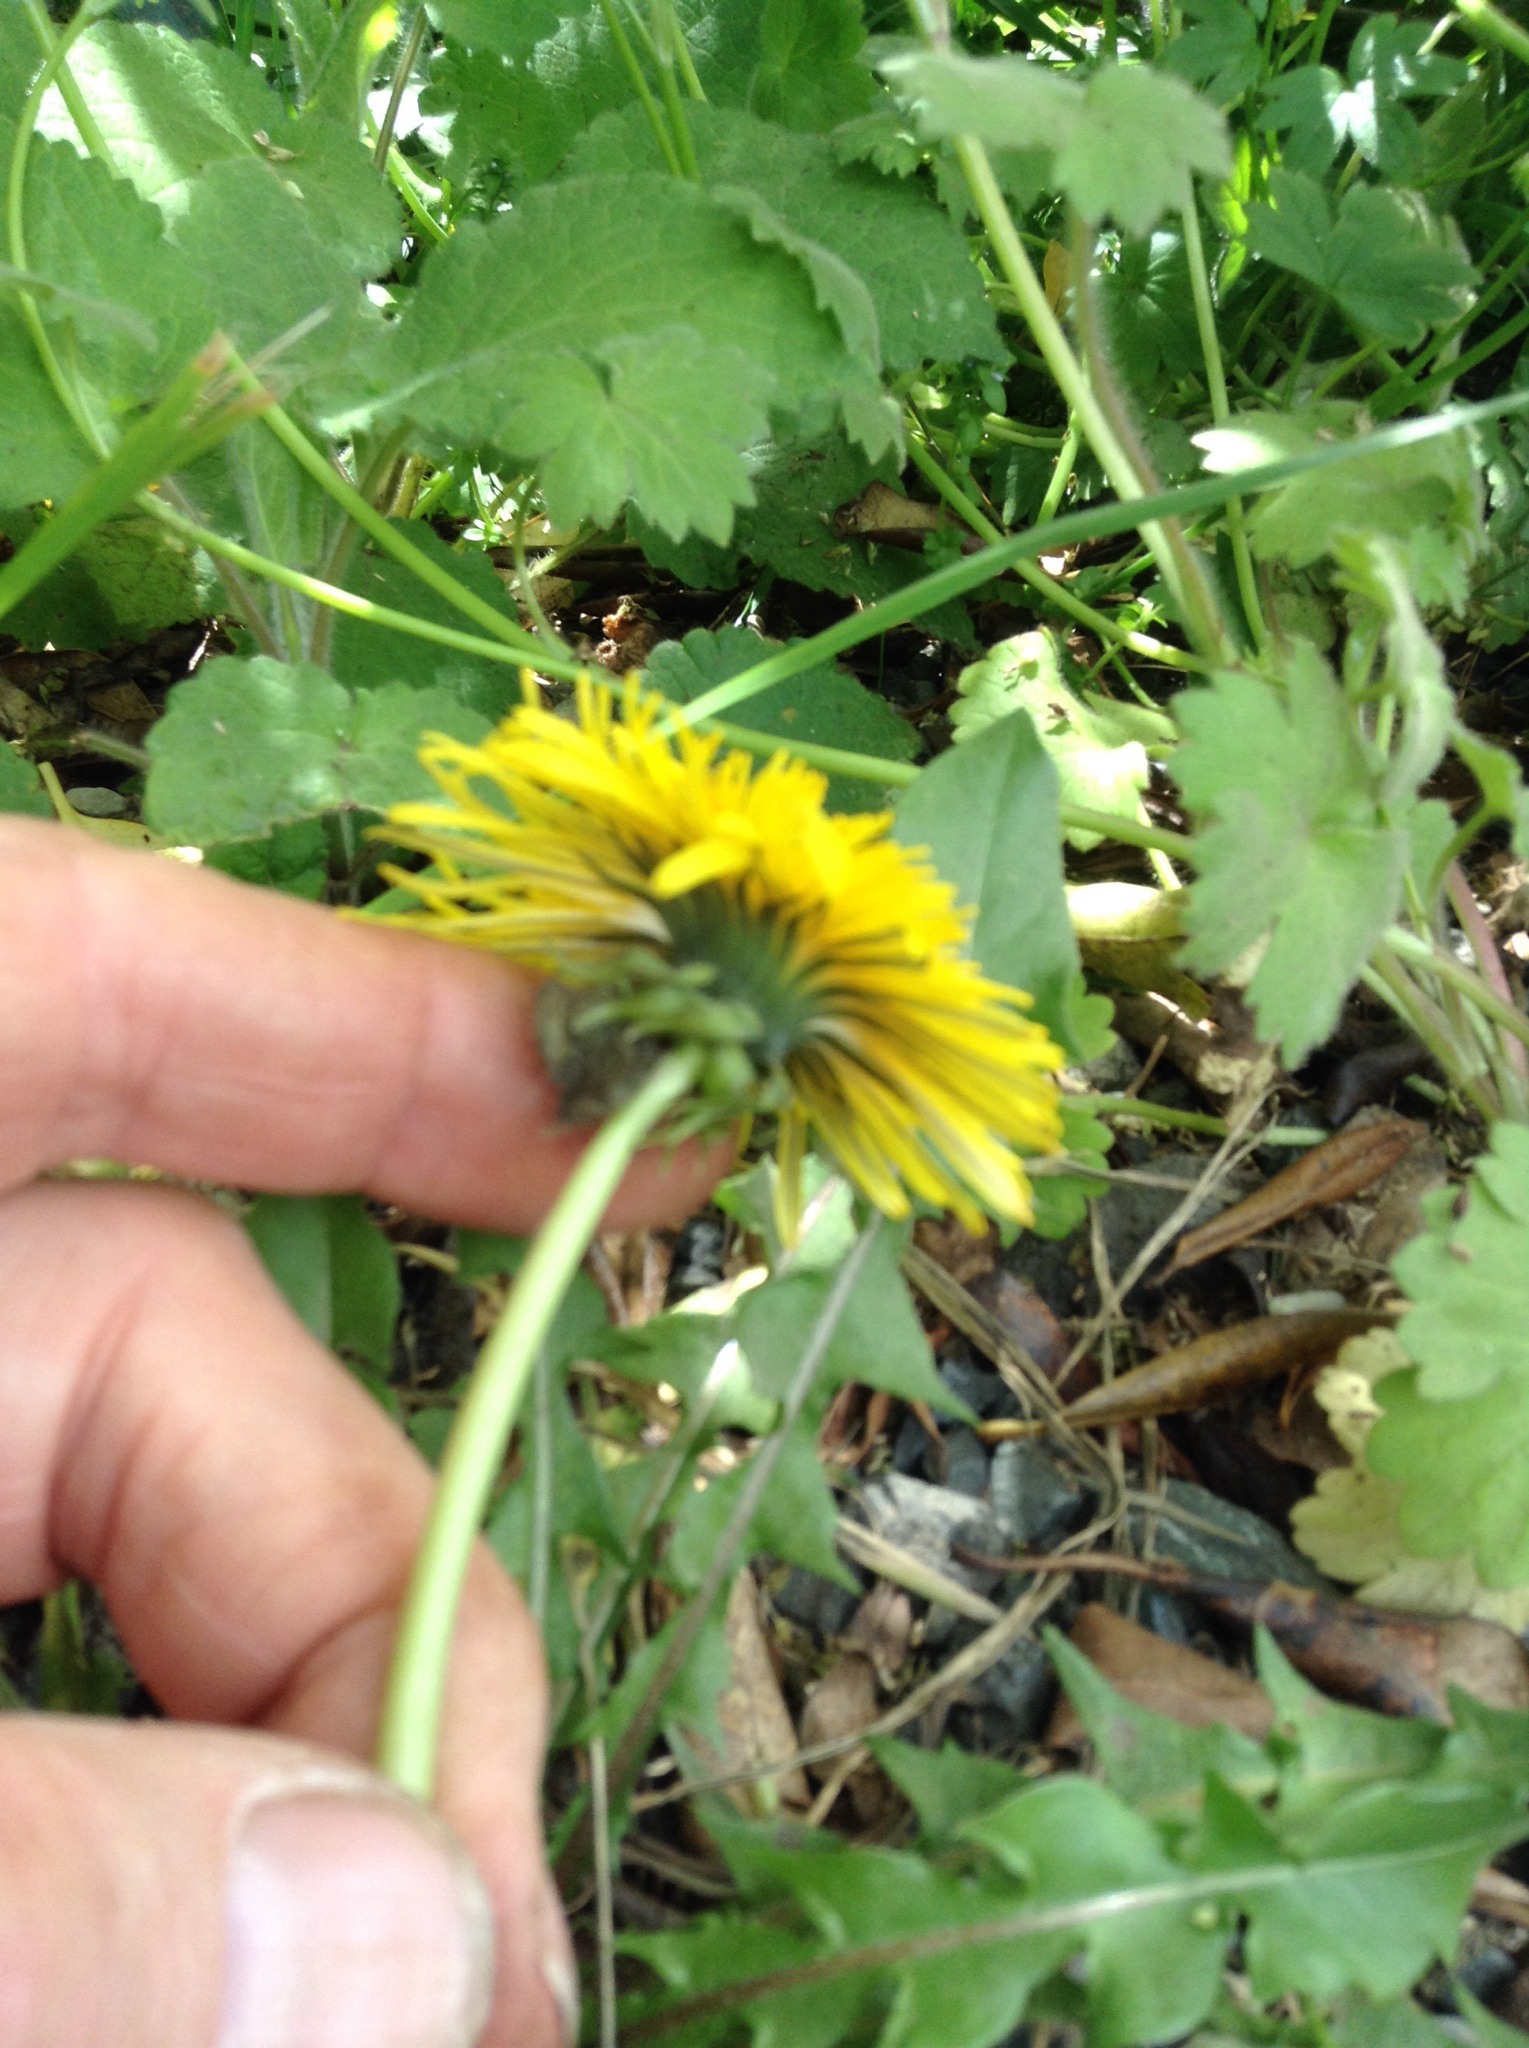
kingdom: Plantae
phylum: Tracheophyta
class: Magnoliopsida
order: Asterales
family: Asteraceae
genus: Taraxacum
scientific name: Taraxacum officinale
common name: Common dandelion
